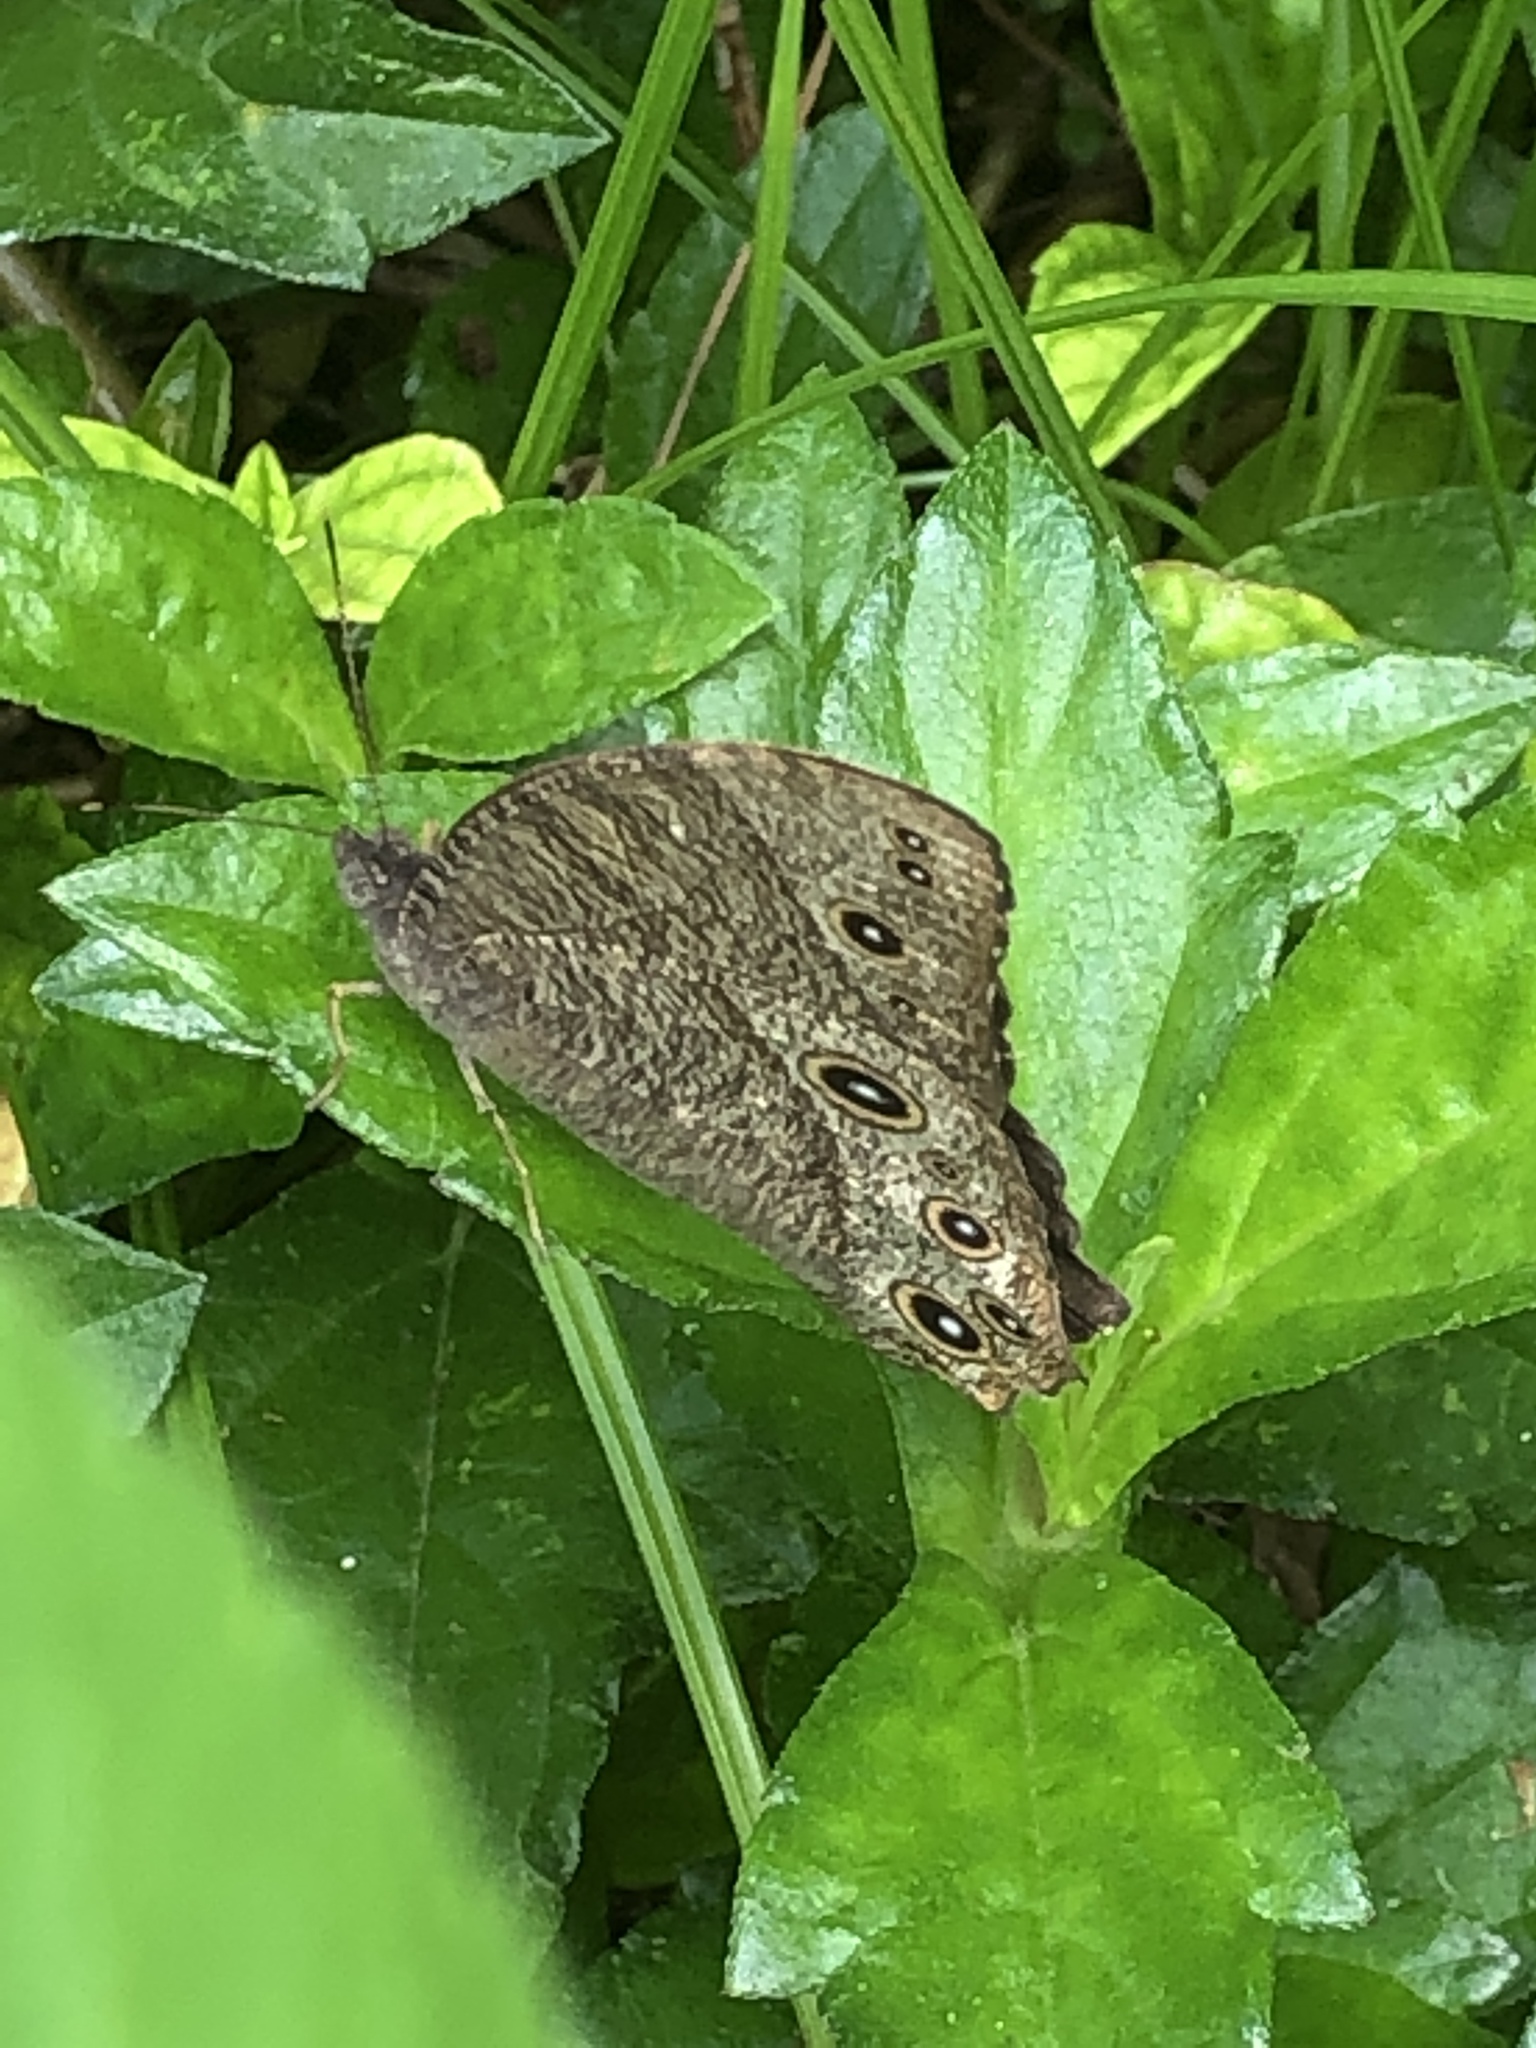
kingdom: Animalia
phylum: Arthropoda
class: Insecta
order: Lepidoptera
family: Nymphalidae
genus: Melanitis
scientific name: Melanitis leda
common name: Twilight brown
